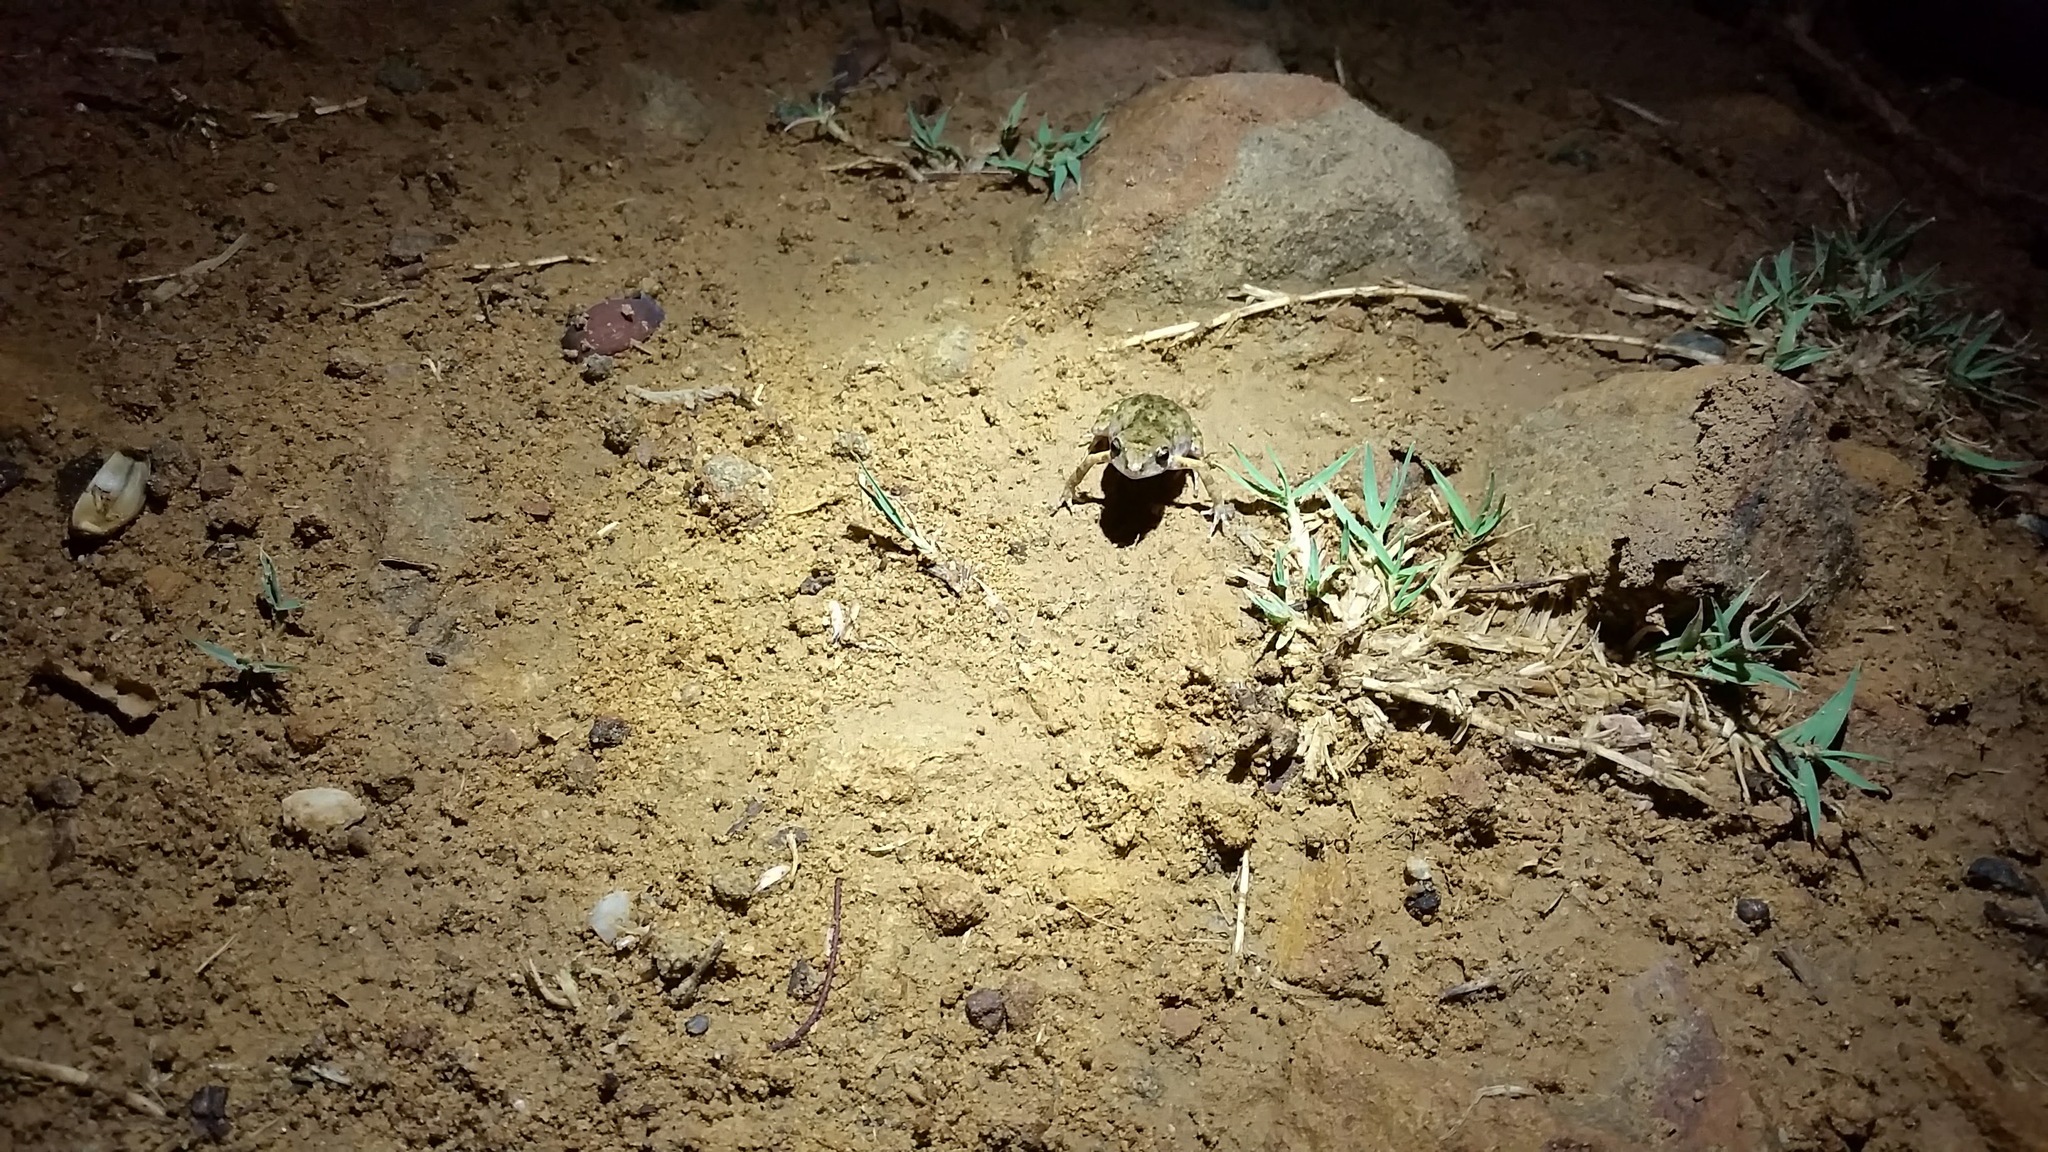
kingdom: Animalia
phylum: Chordata
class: Amphibia
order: Anura
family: Eleutherodactylidae
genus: Eleutherodactylus
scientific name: Eleutherodactylus nitidus
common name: Peters' shiny peeping frog
